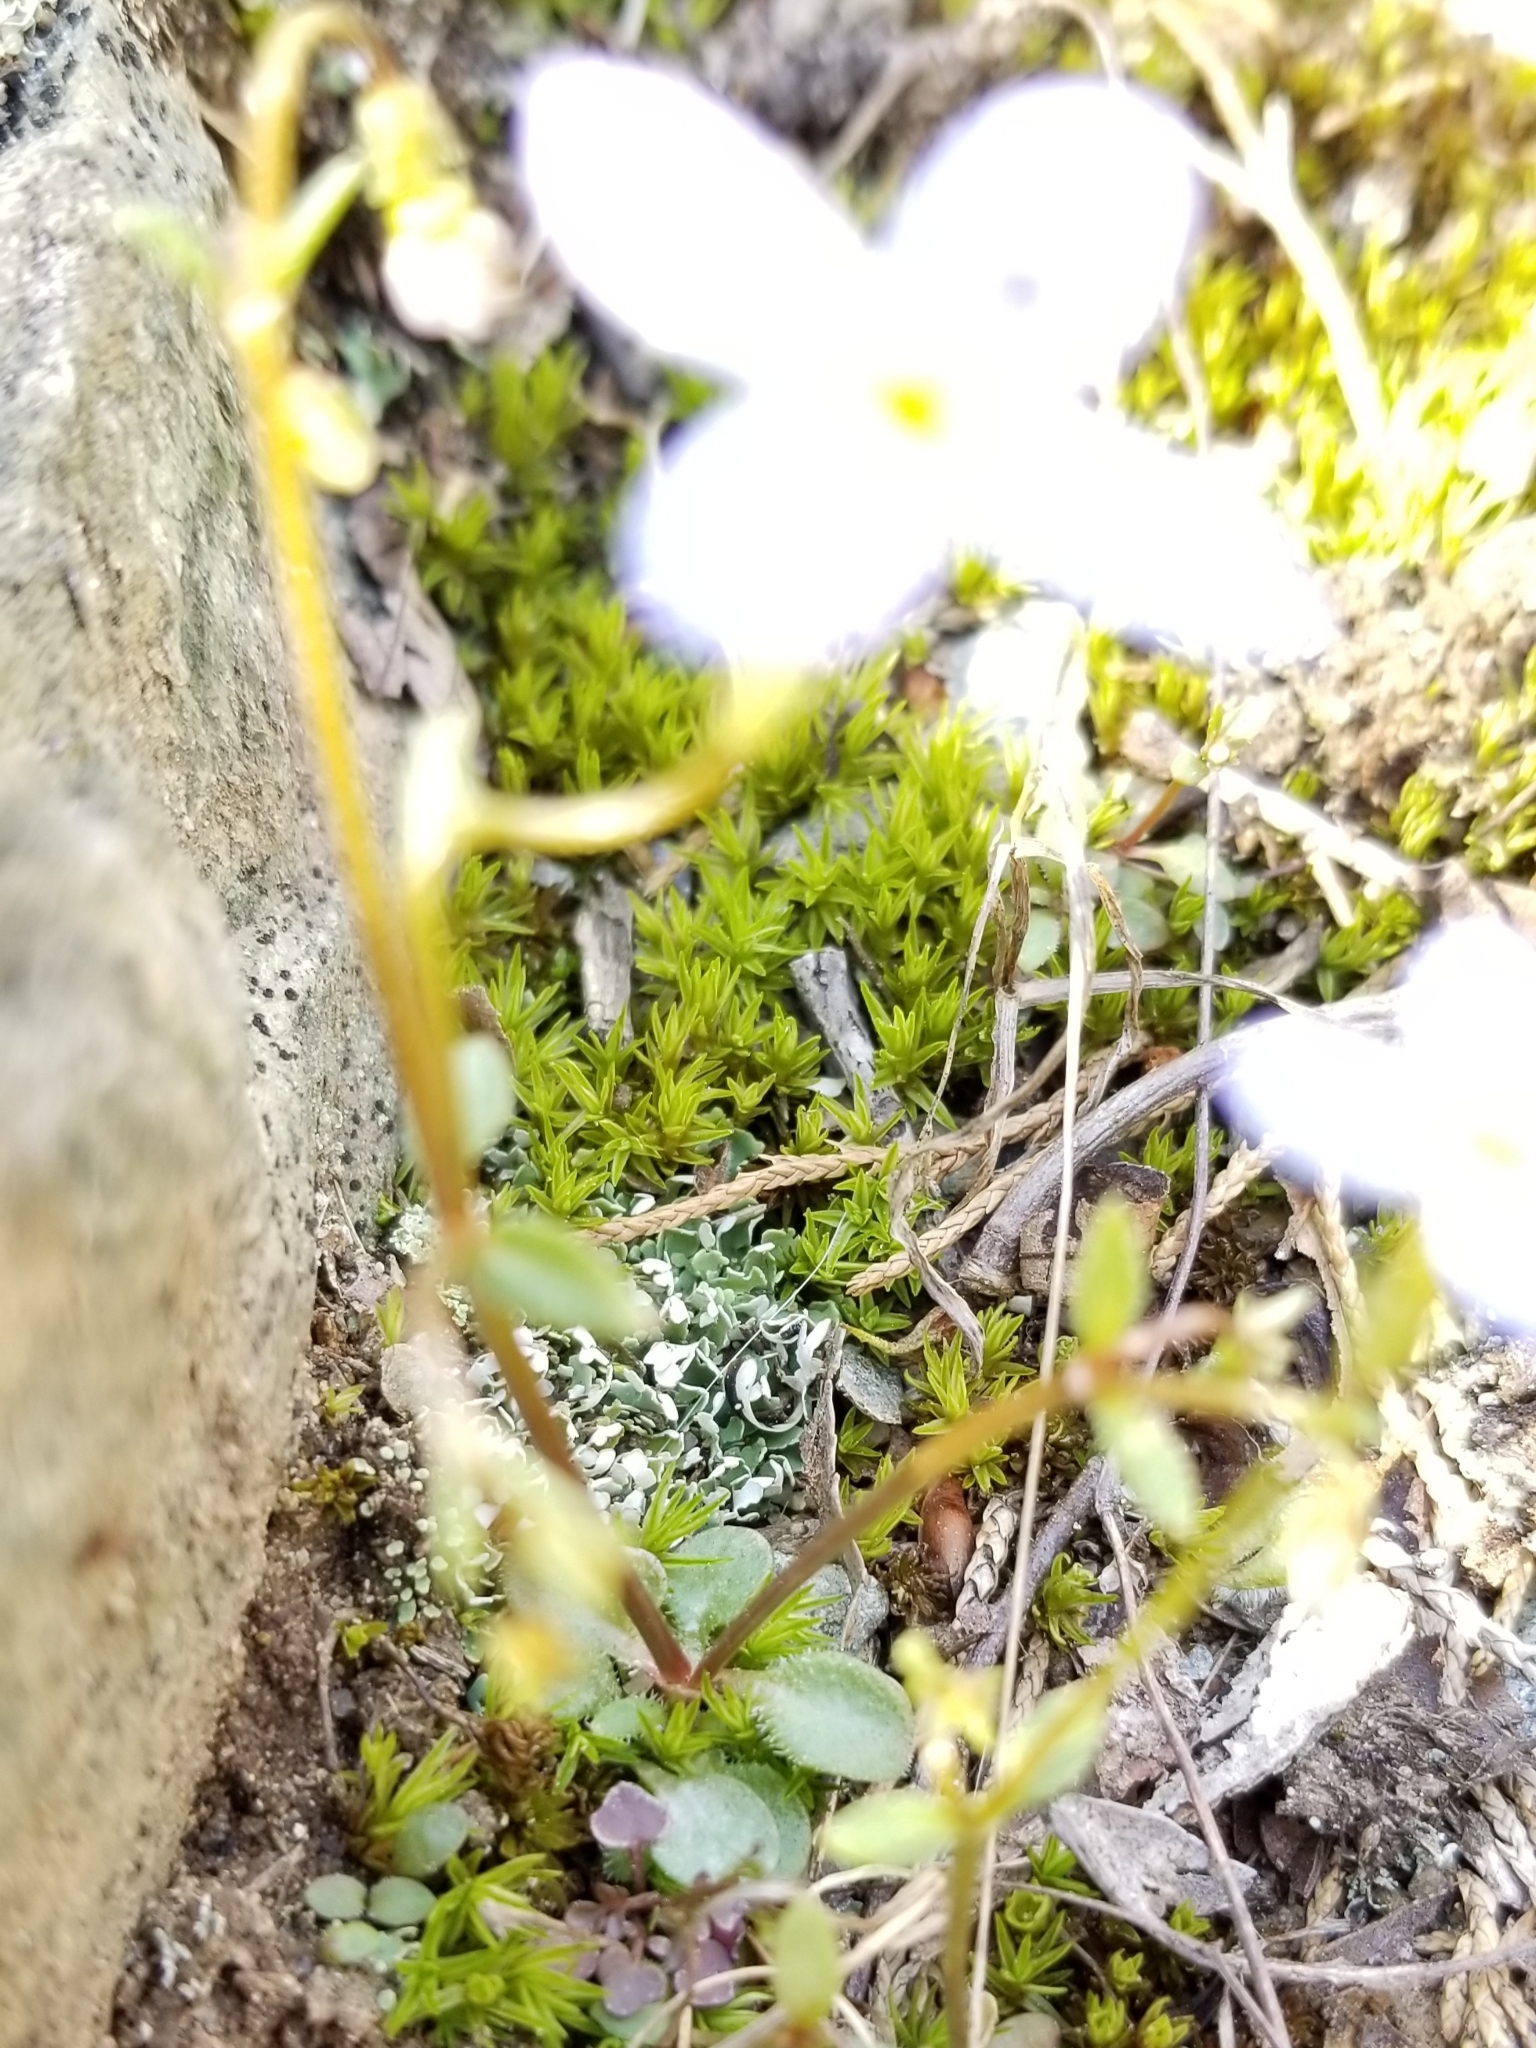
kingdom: Plantae
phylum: Tracheophyta
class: Magnoliopsida
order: Gentianales
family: Rubiaceae
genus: Houstonia
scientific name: Houstonia caerulea
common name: Bluets
